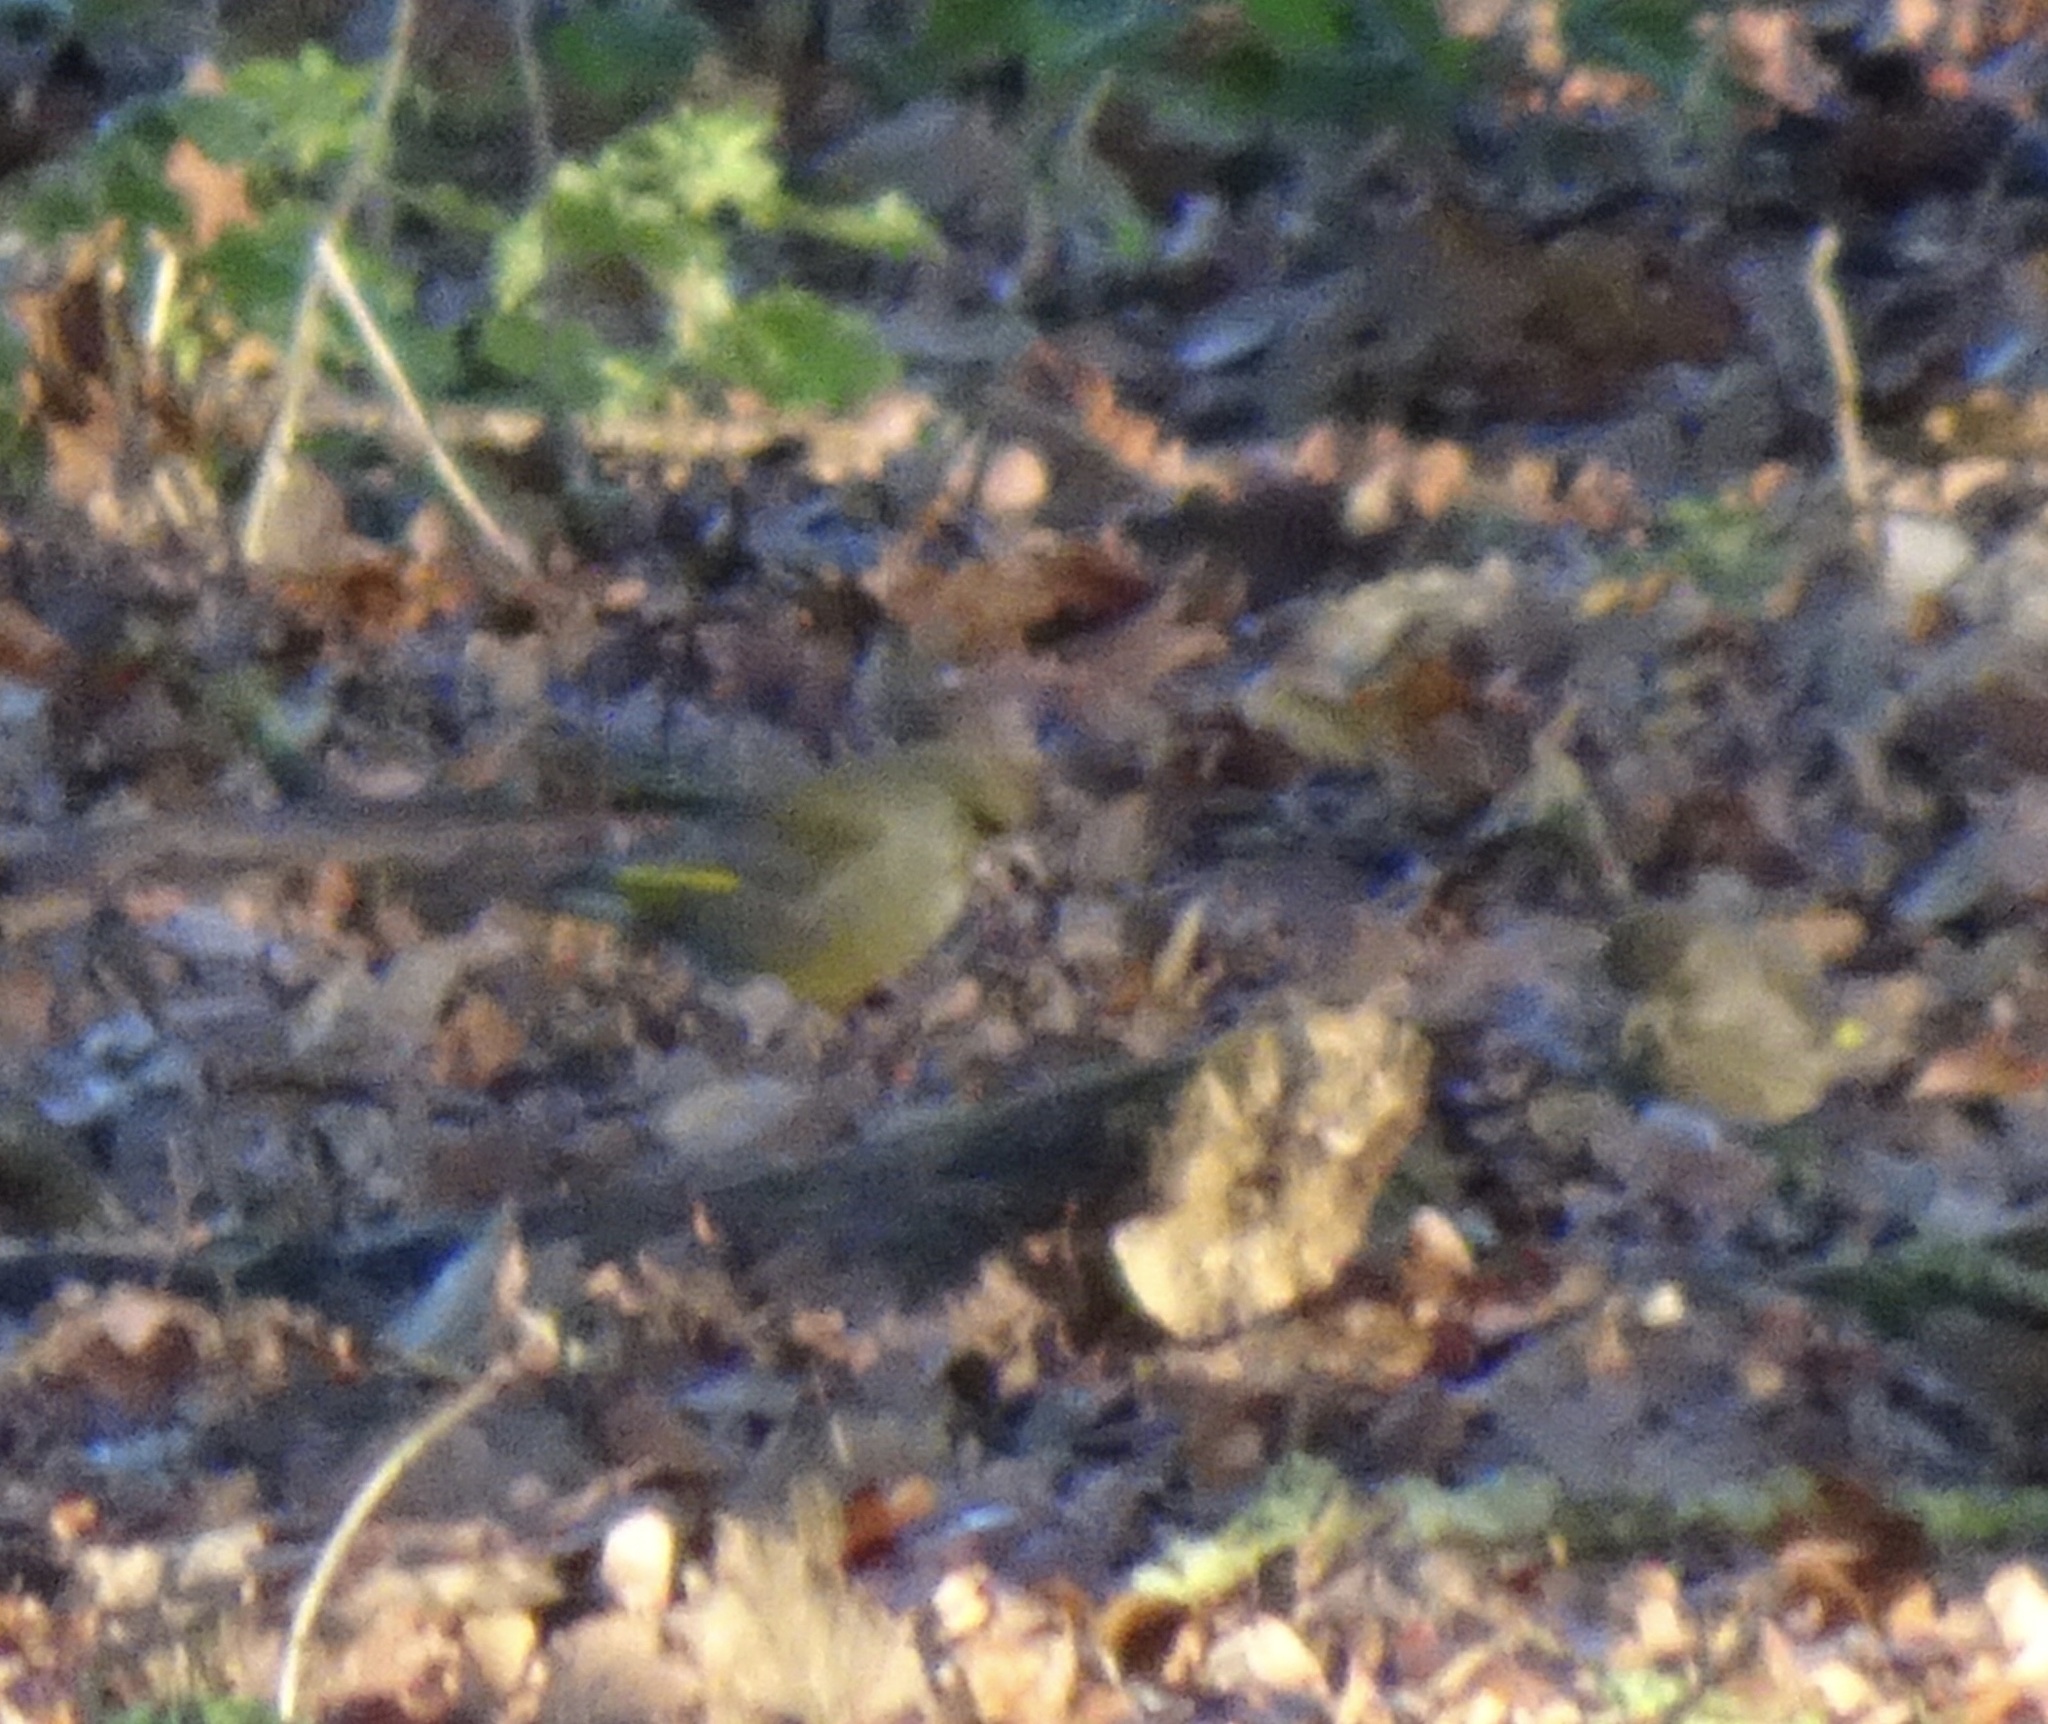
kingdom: Plantae
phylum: Tracheophyta
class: Liliopsida
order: Poales
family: Poaceae
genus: Chloris
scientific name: Chloris chloris
